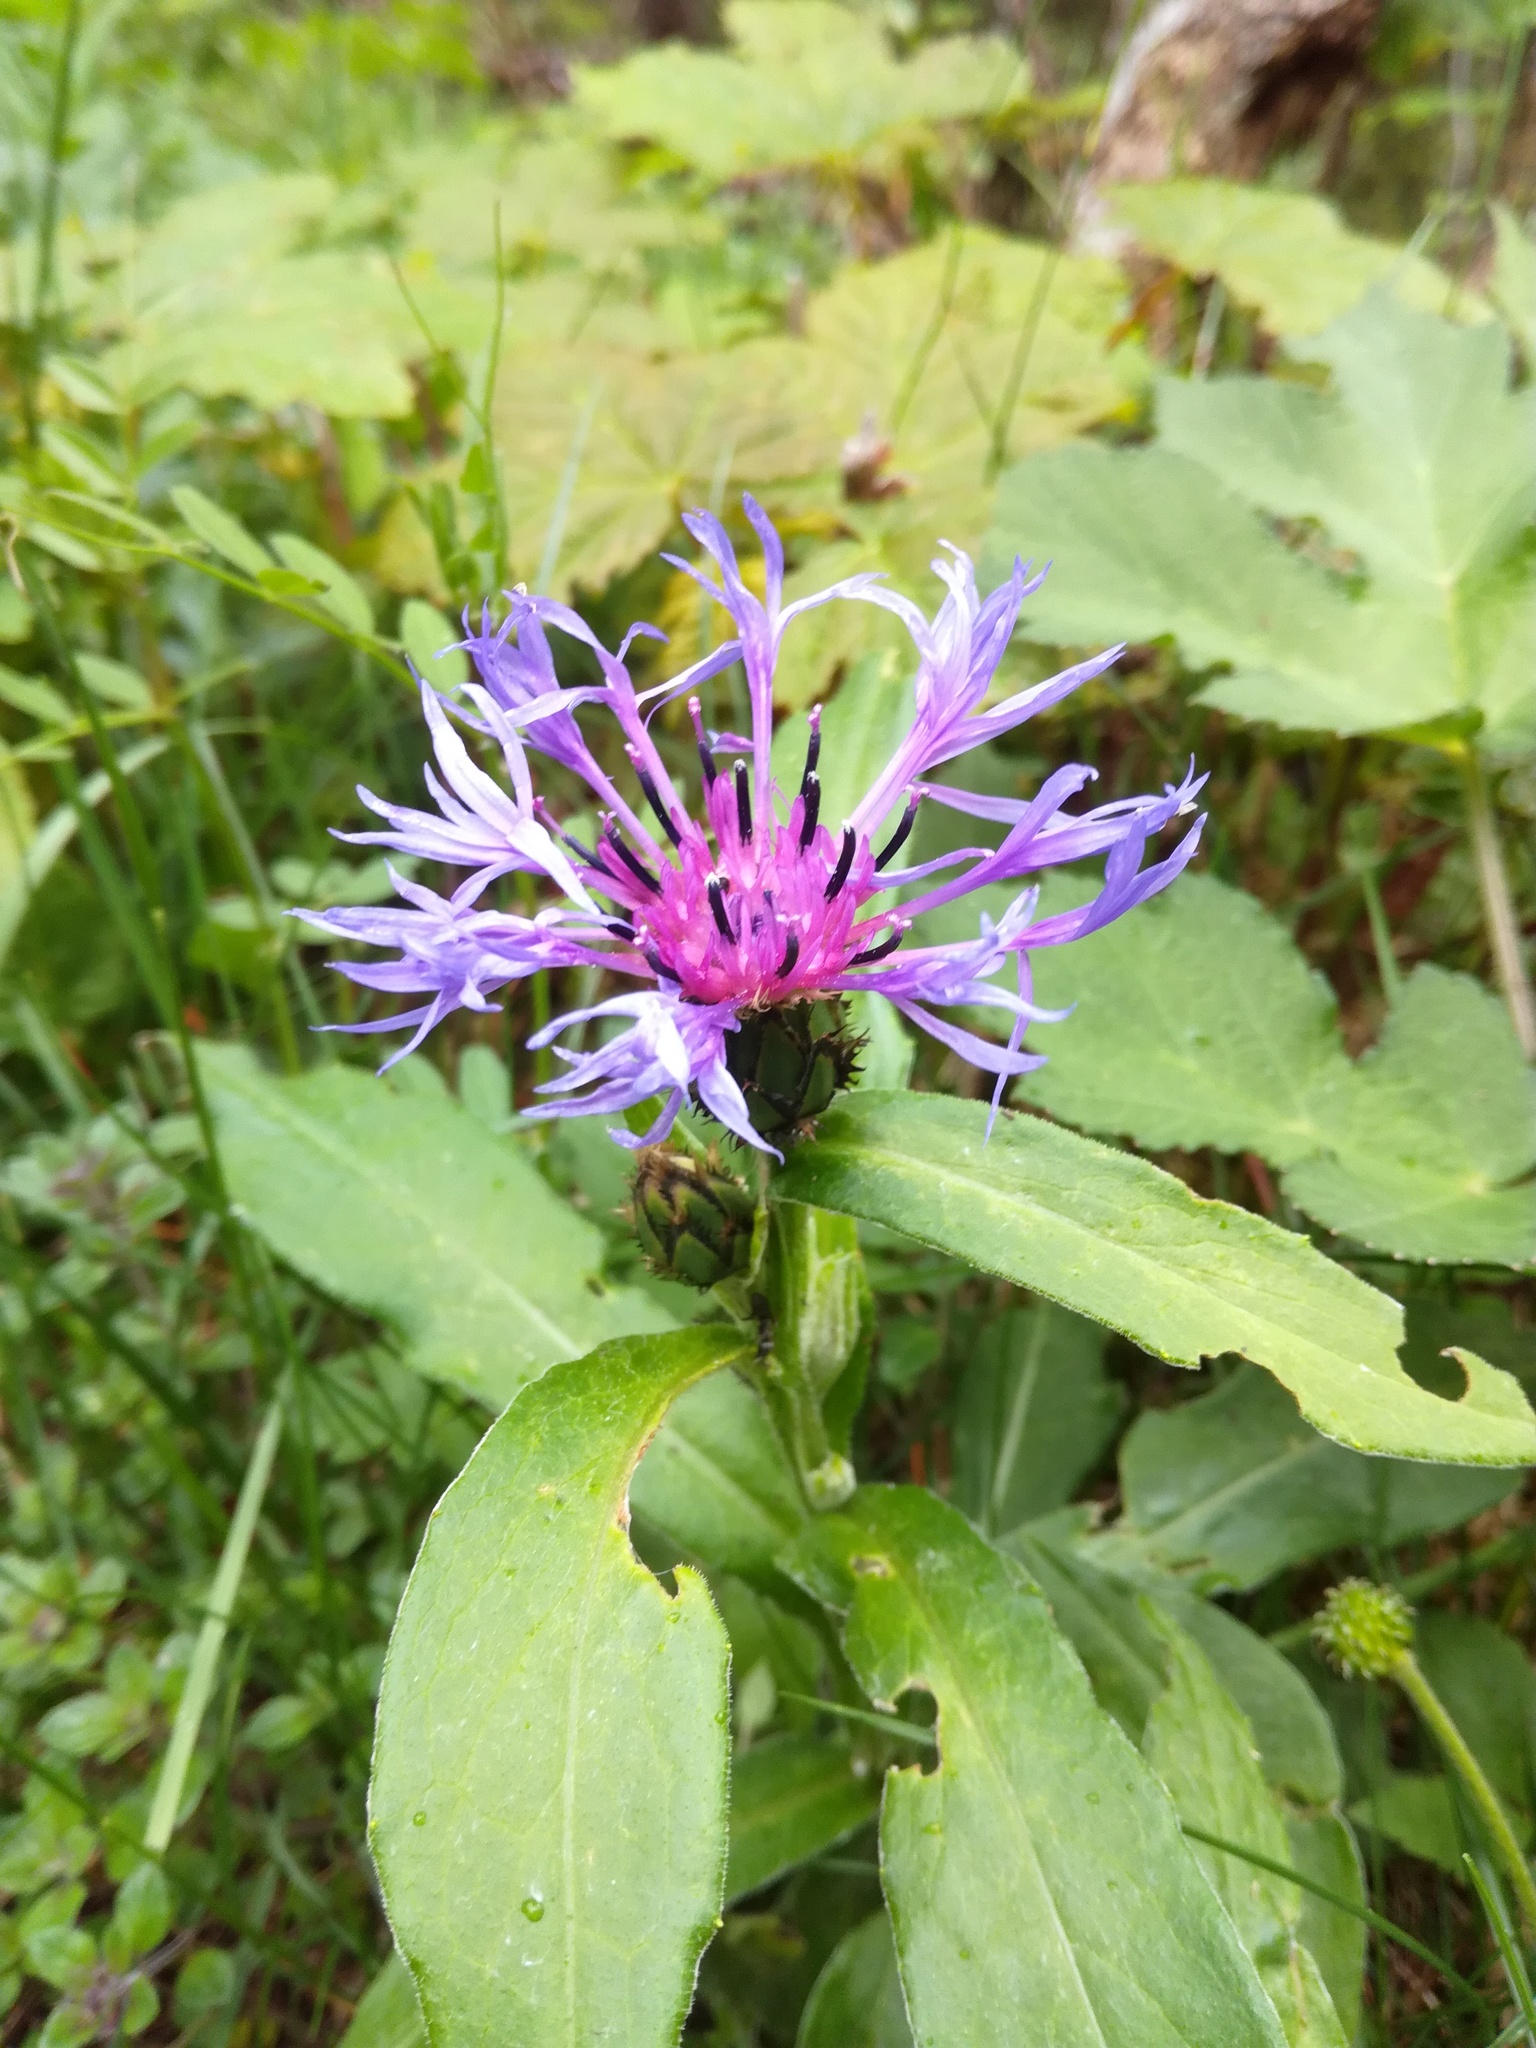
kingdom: Plantae
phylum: Tracheophyta
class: Magnoliopsida
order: Asterales
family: Asteraceae
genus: Centaurea
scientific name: Centaurea montana
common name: Perennial cornflower
